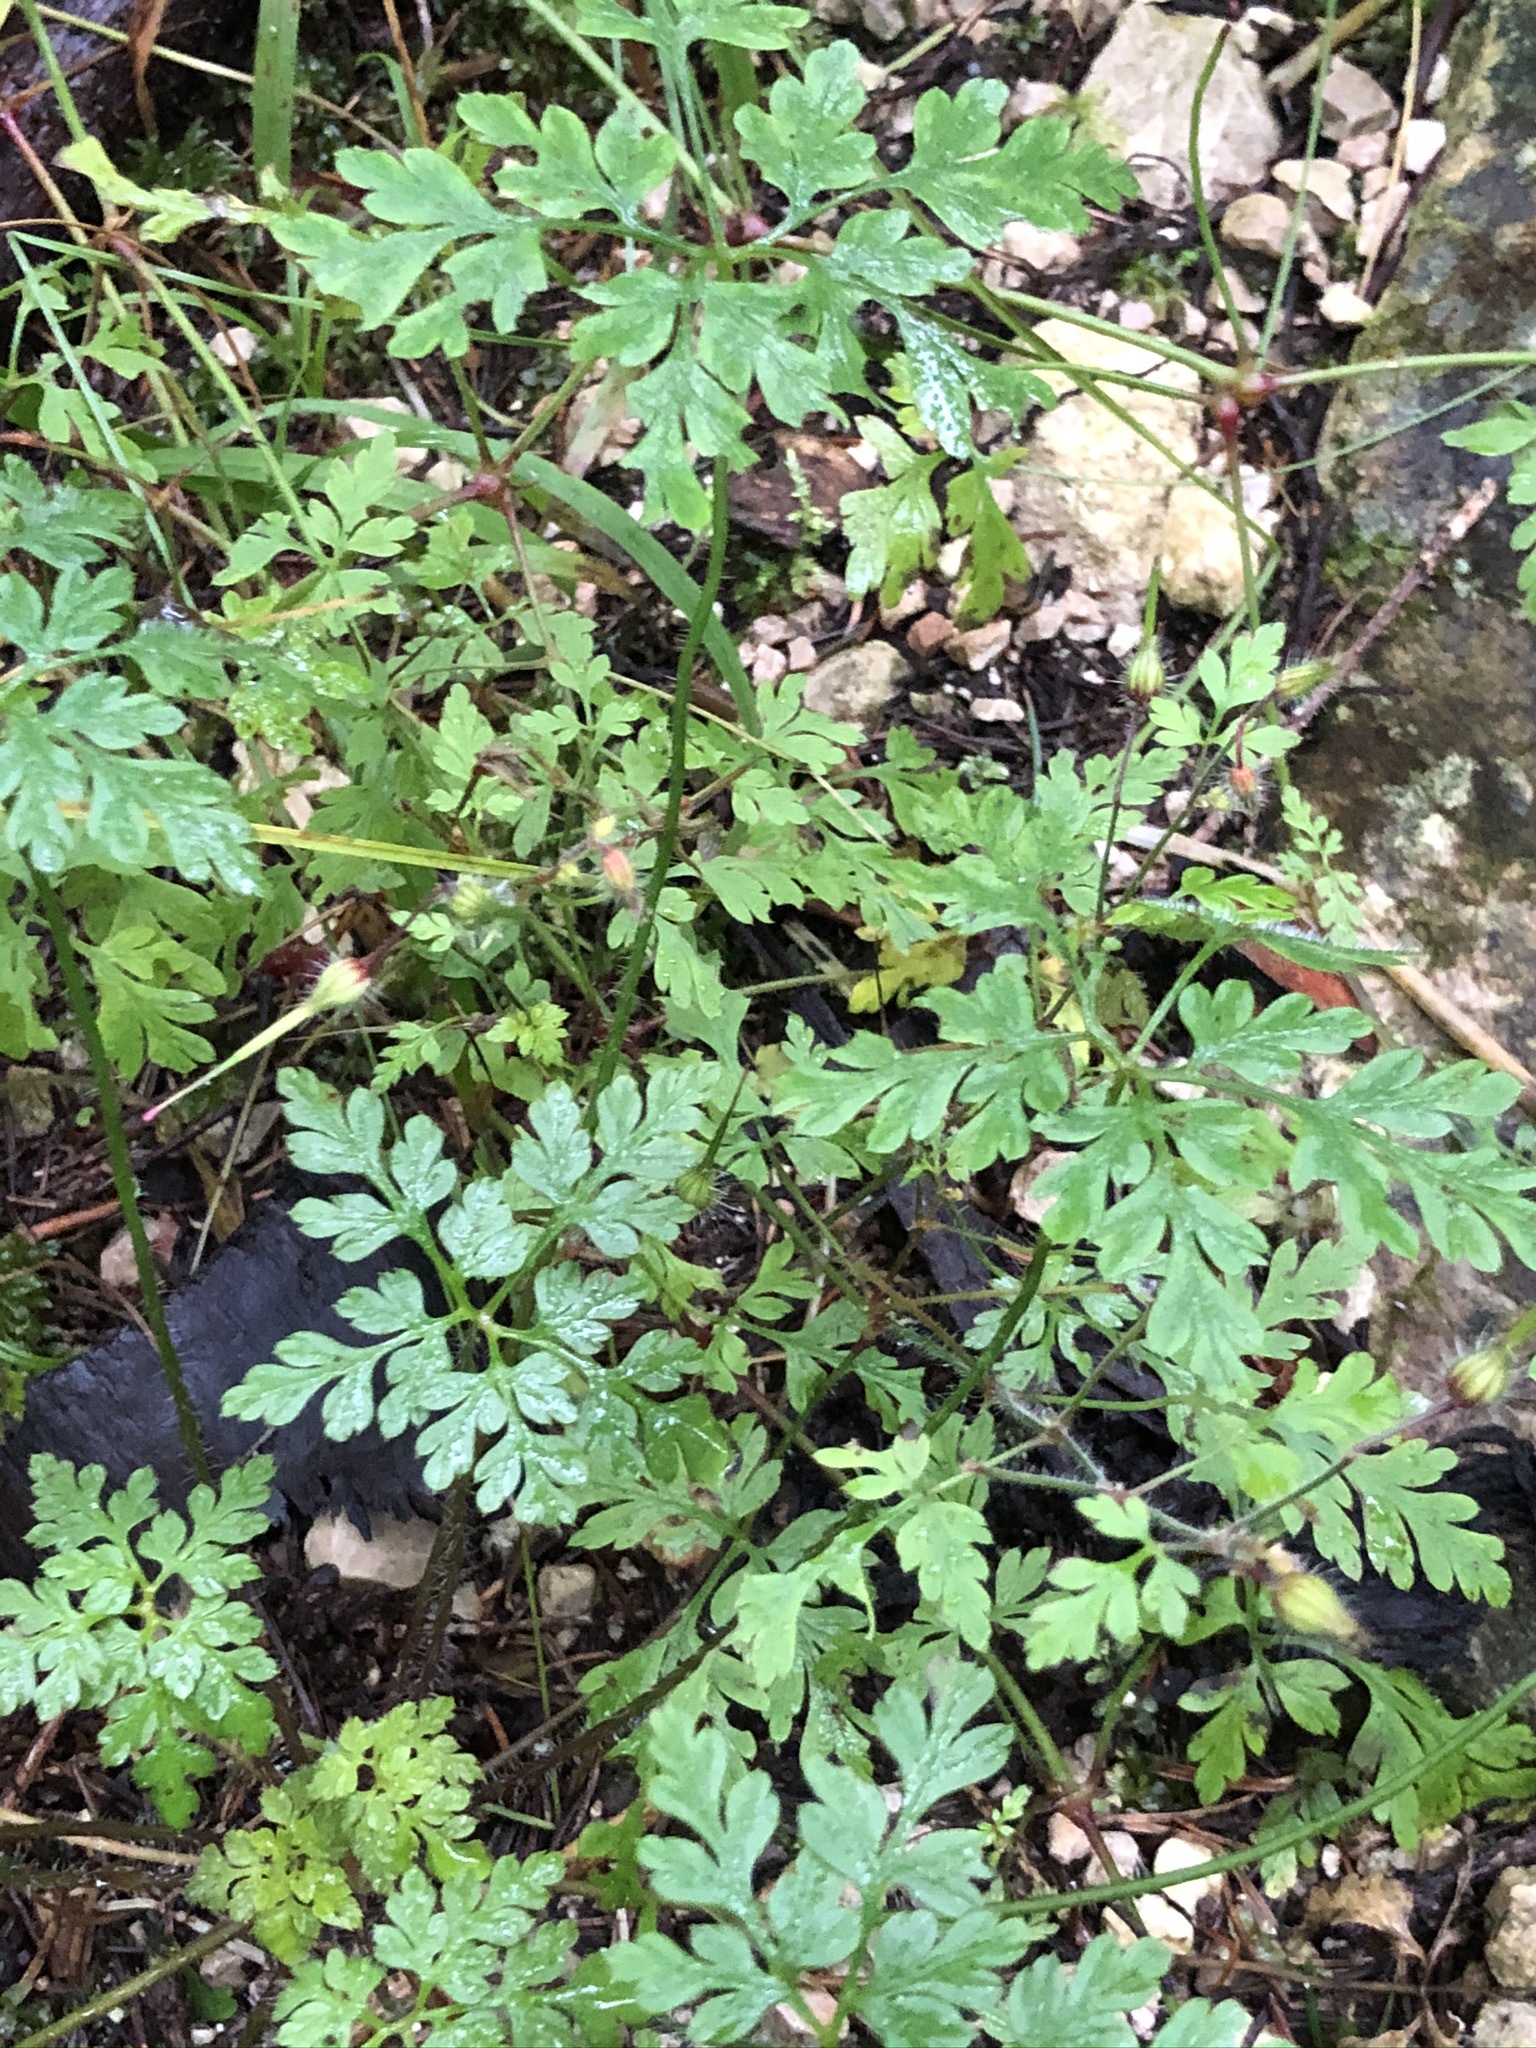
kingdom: Plantae
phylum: Tracheophyta
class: Magnoliopsida
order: Geraniales
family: Geraniaceae
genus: Geranium
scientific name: Geranium robertianum
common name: Herb-robert
